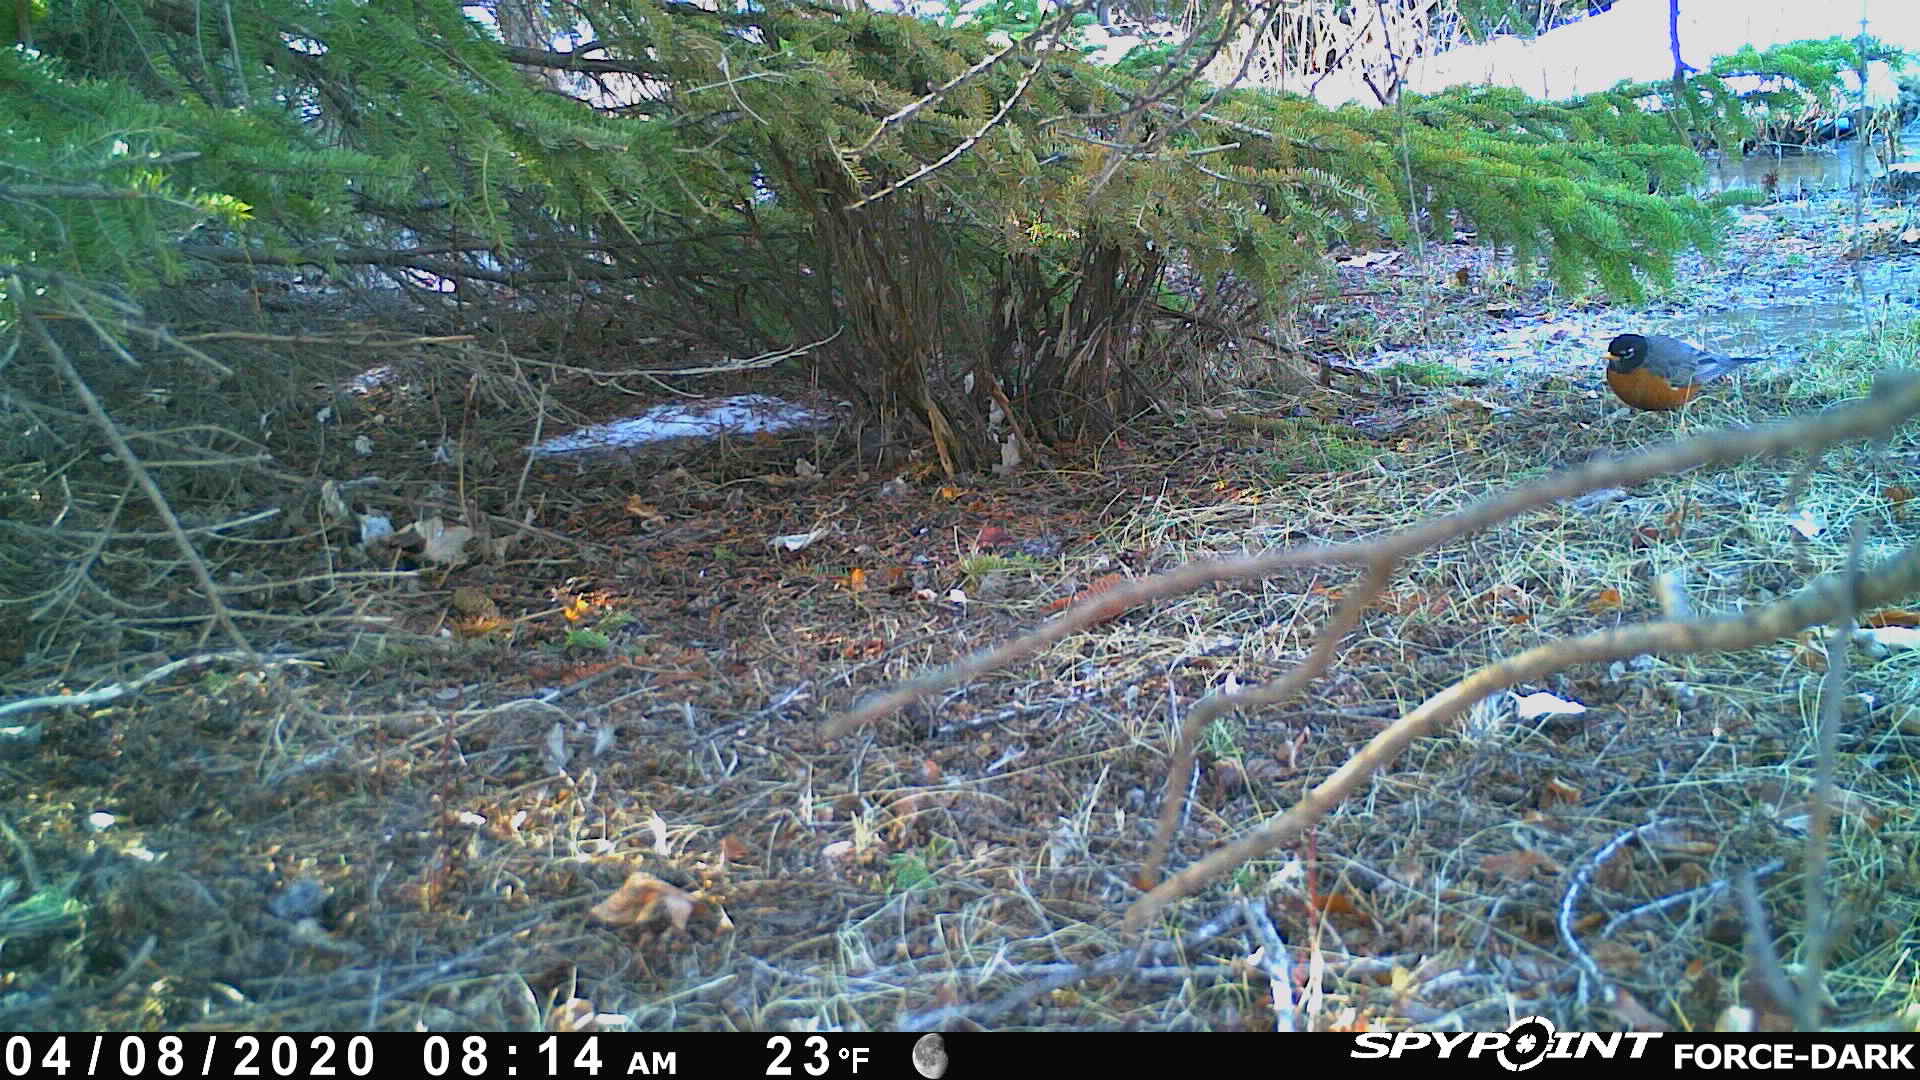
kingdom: Animalia
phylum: Chordata
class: Aves
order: Passeriformes
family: Turdidae
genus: Turdus
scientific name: Turdus migratorius
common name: American robin
